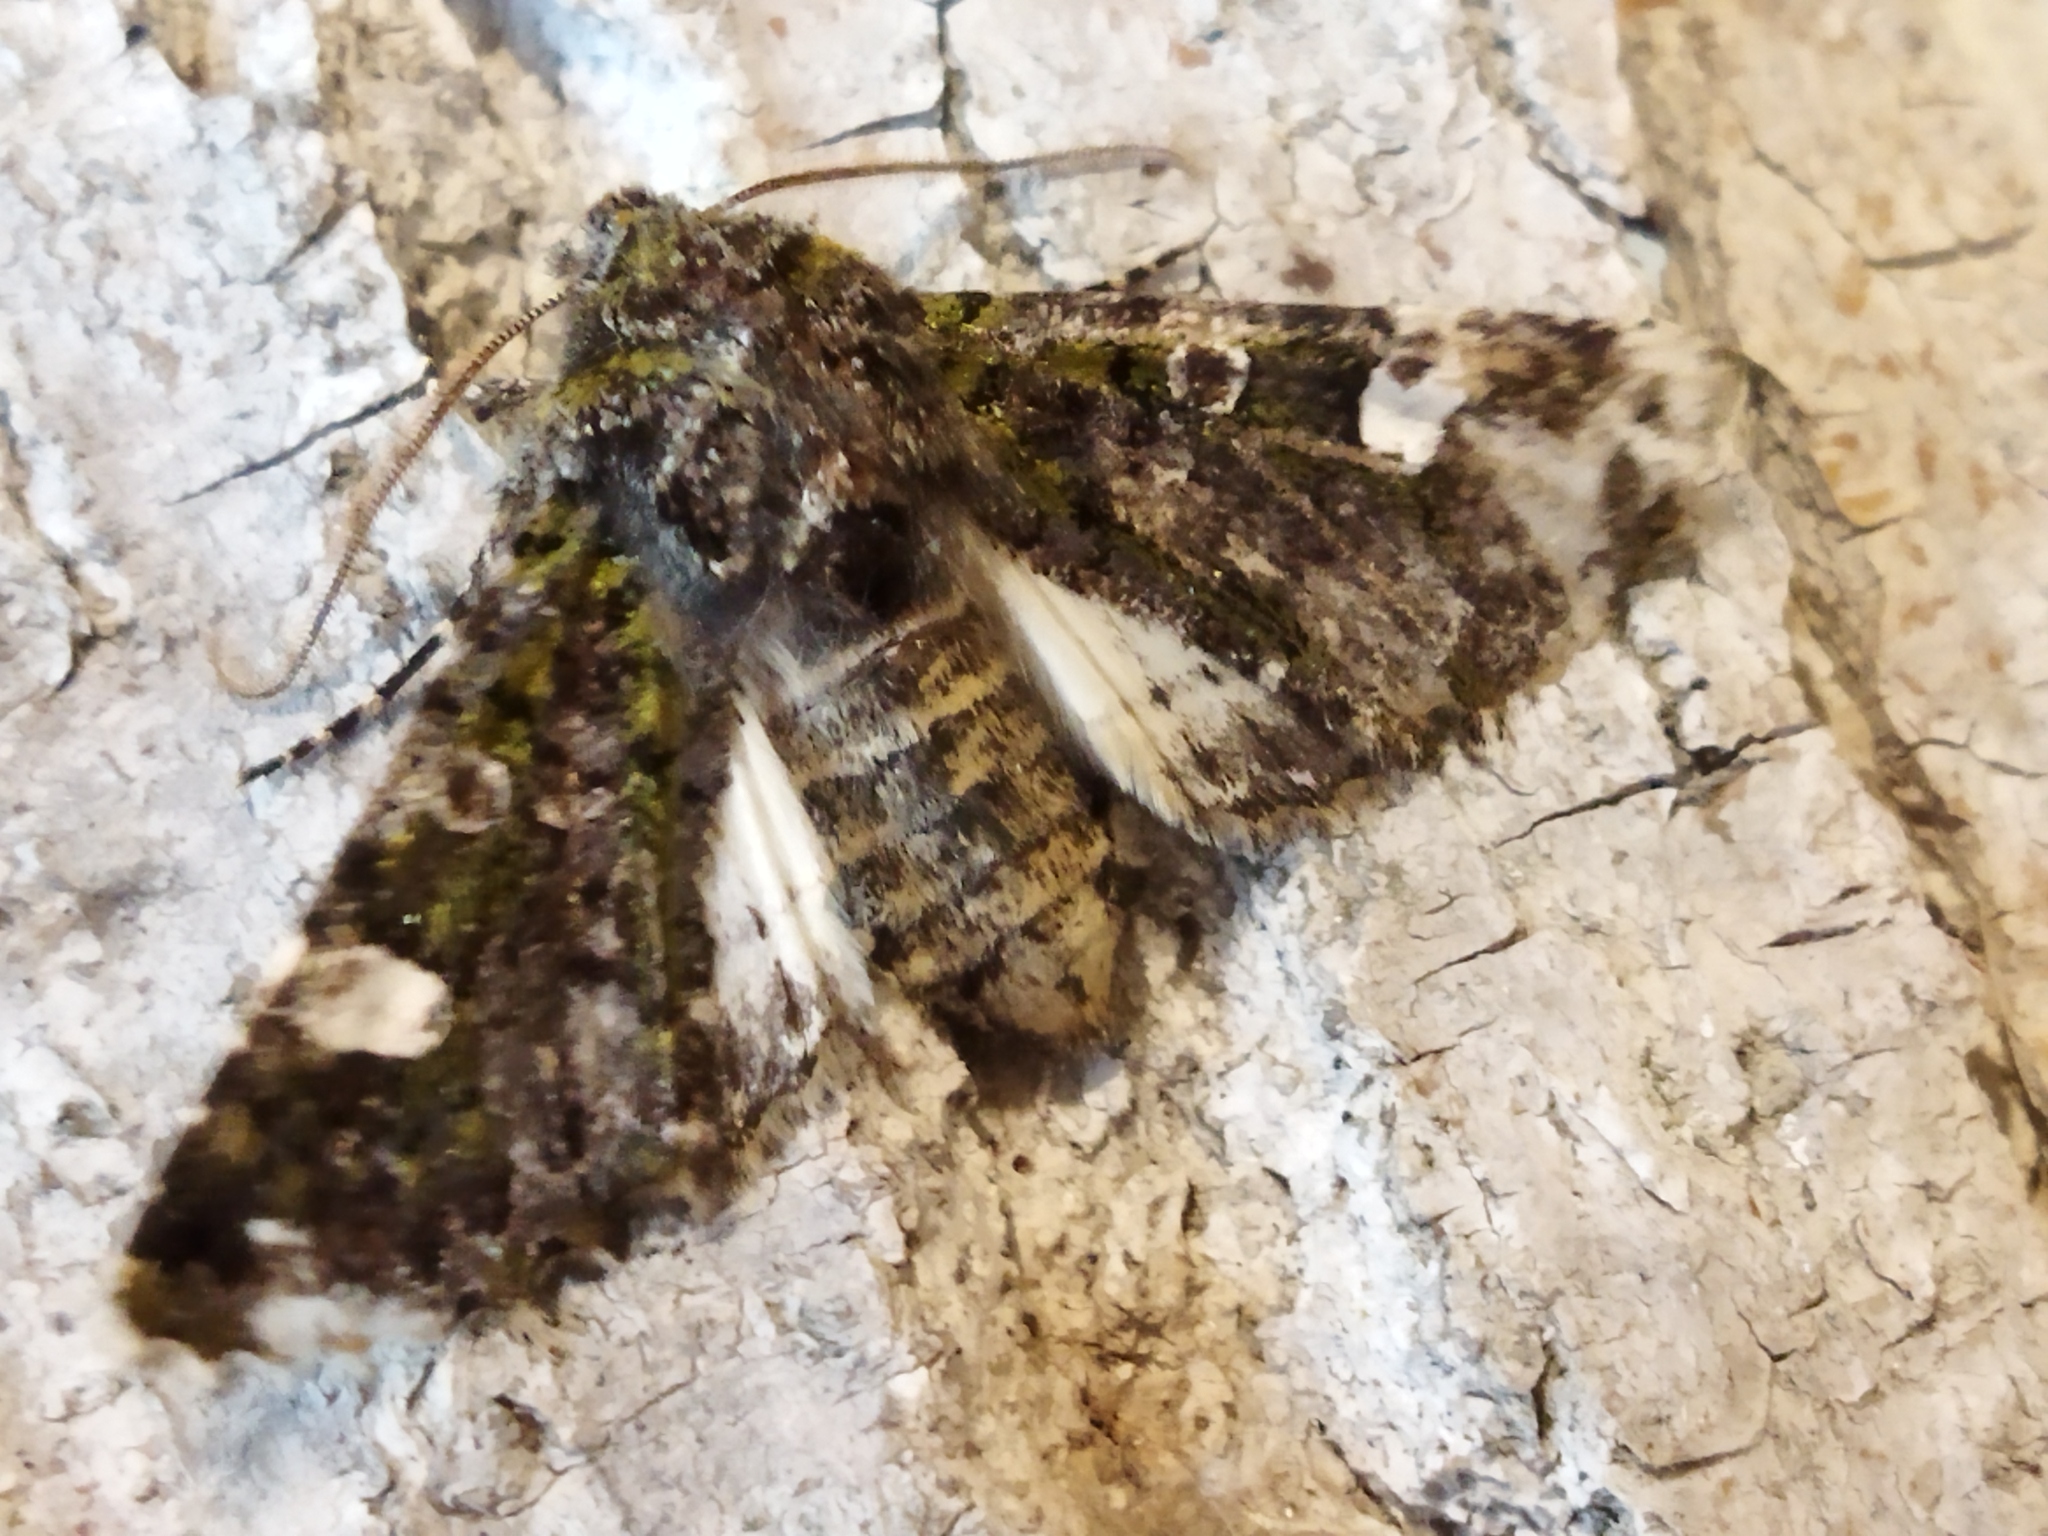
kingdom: Animalia
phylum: Arthropoda
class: Insecta
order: Lepidoptera
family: Noctuidae
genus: Valeria
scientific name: Valeria oleagina
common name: Green-brindled dot
